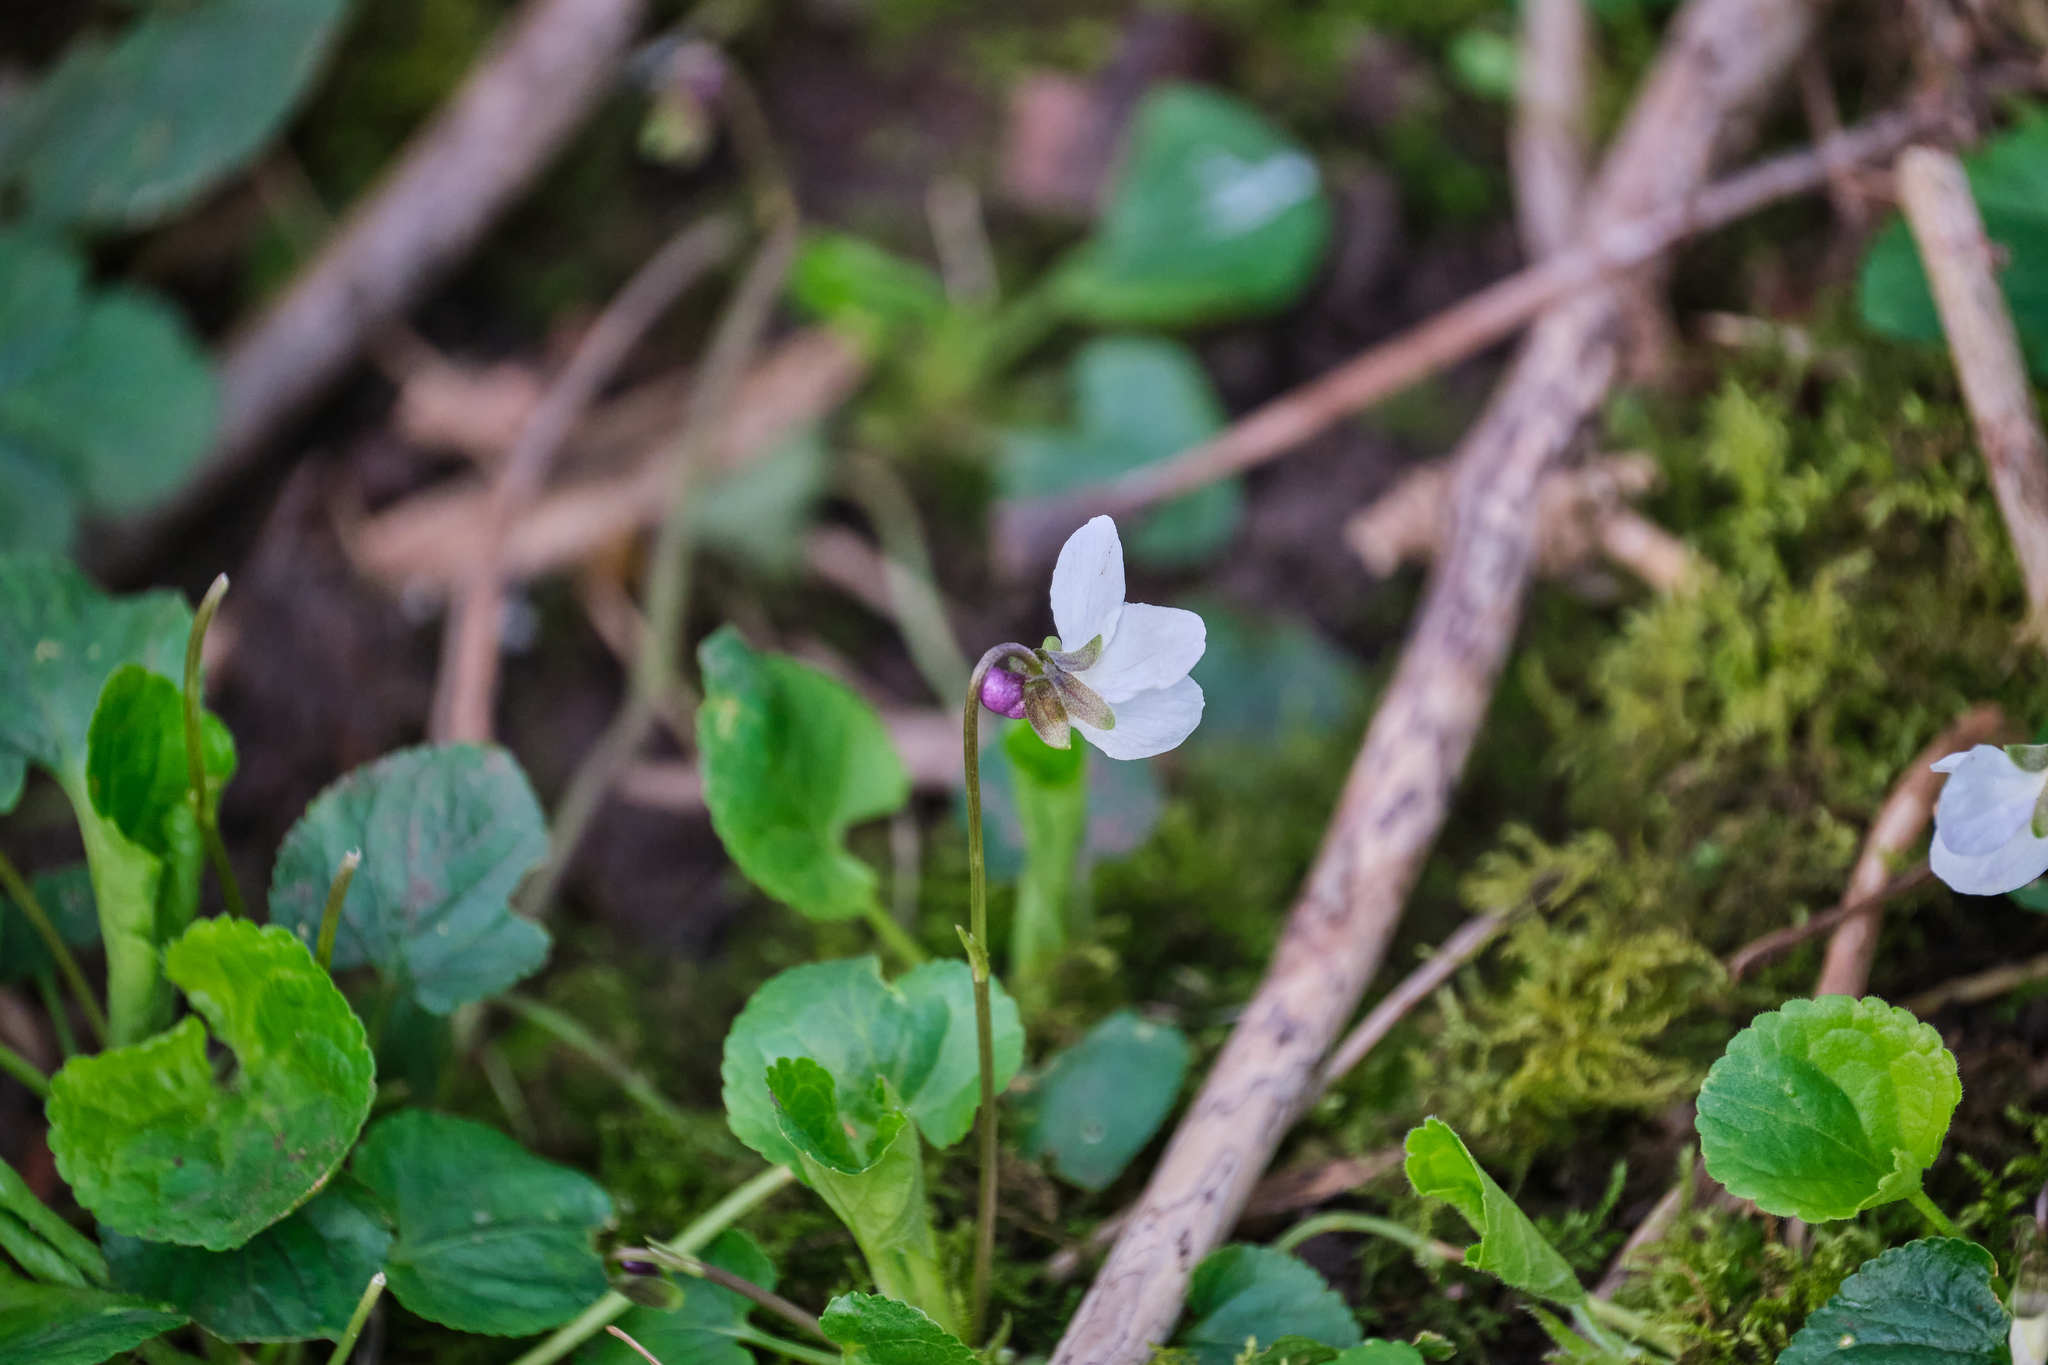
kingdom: Plantae
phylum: Tracheophyta
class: Magnoliopsida
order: Malpighiales
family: Violaceae
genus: Viola
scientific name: Viola odorata
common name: Sweet violet
